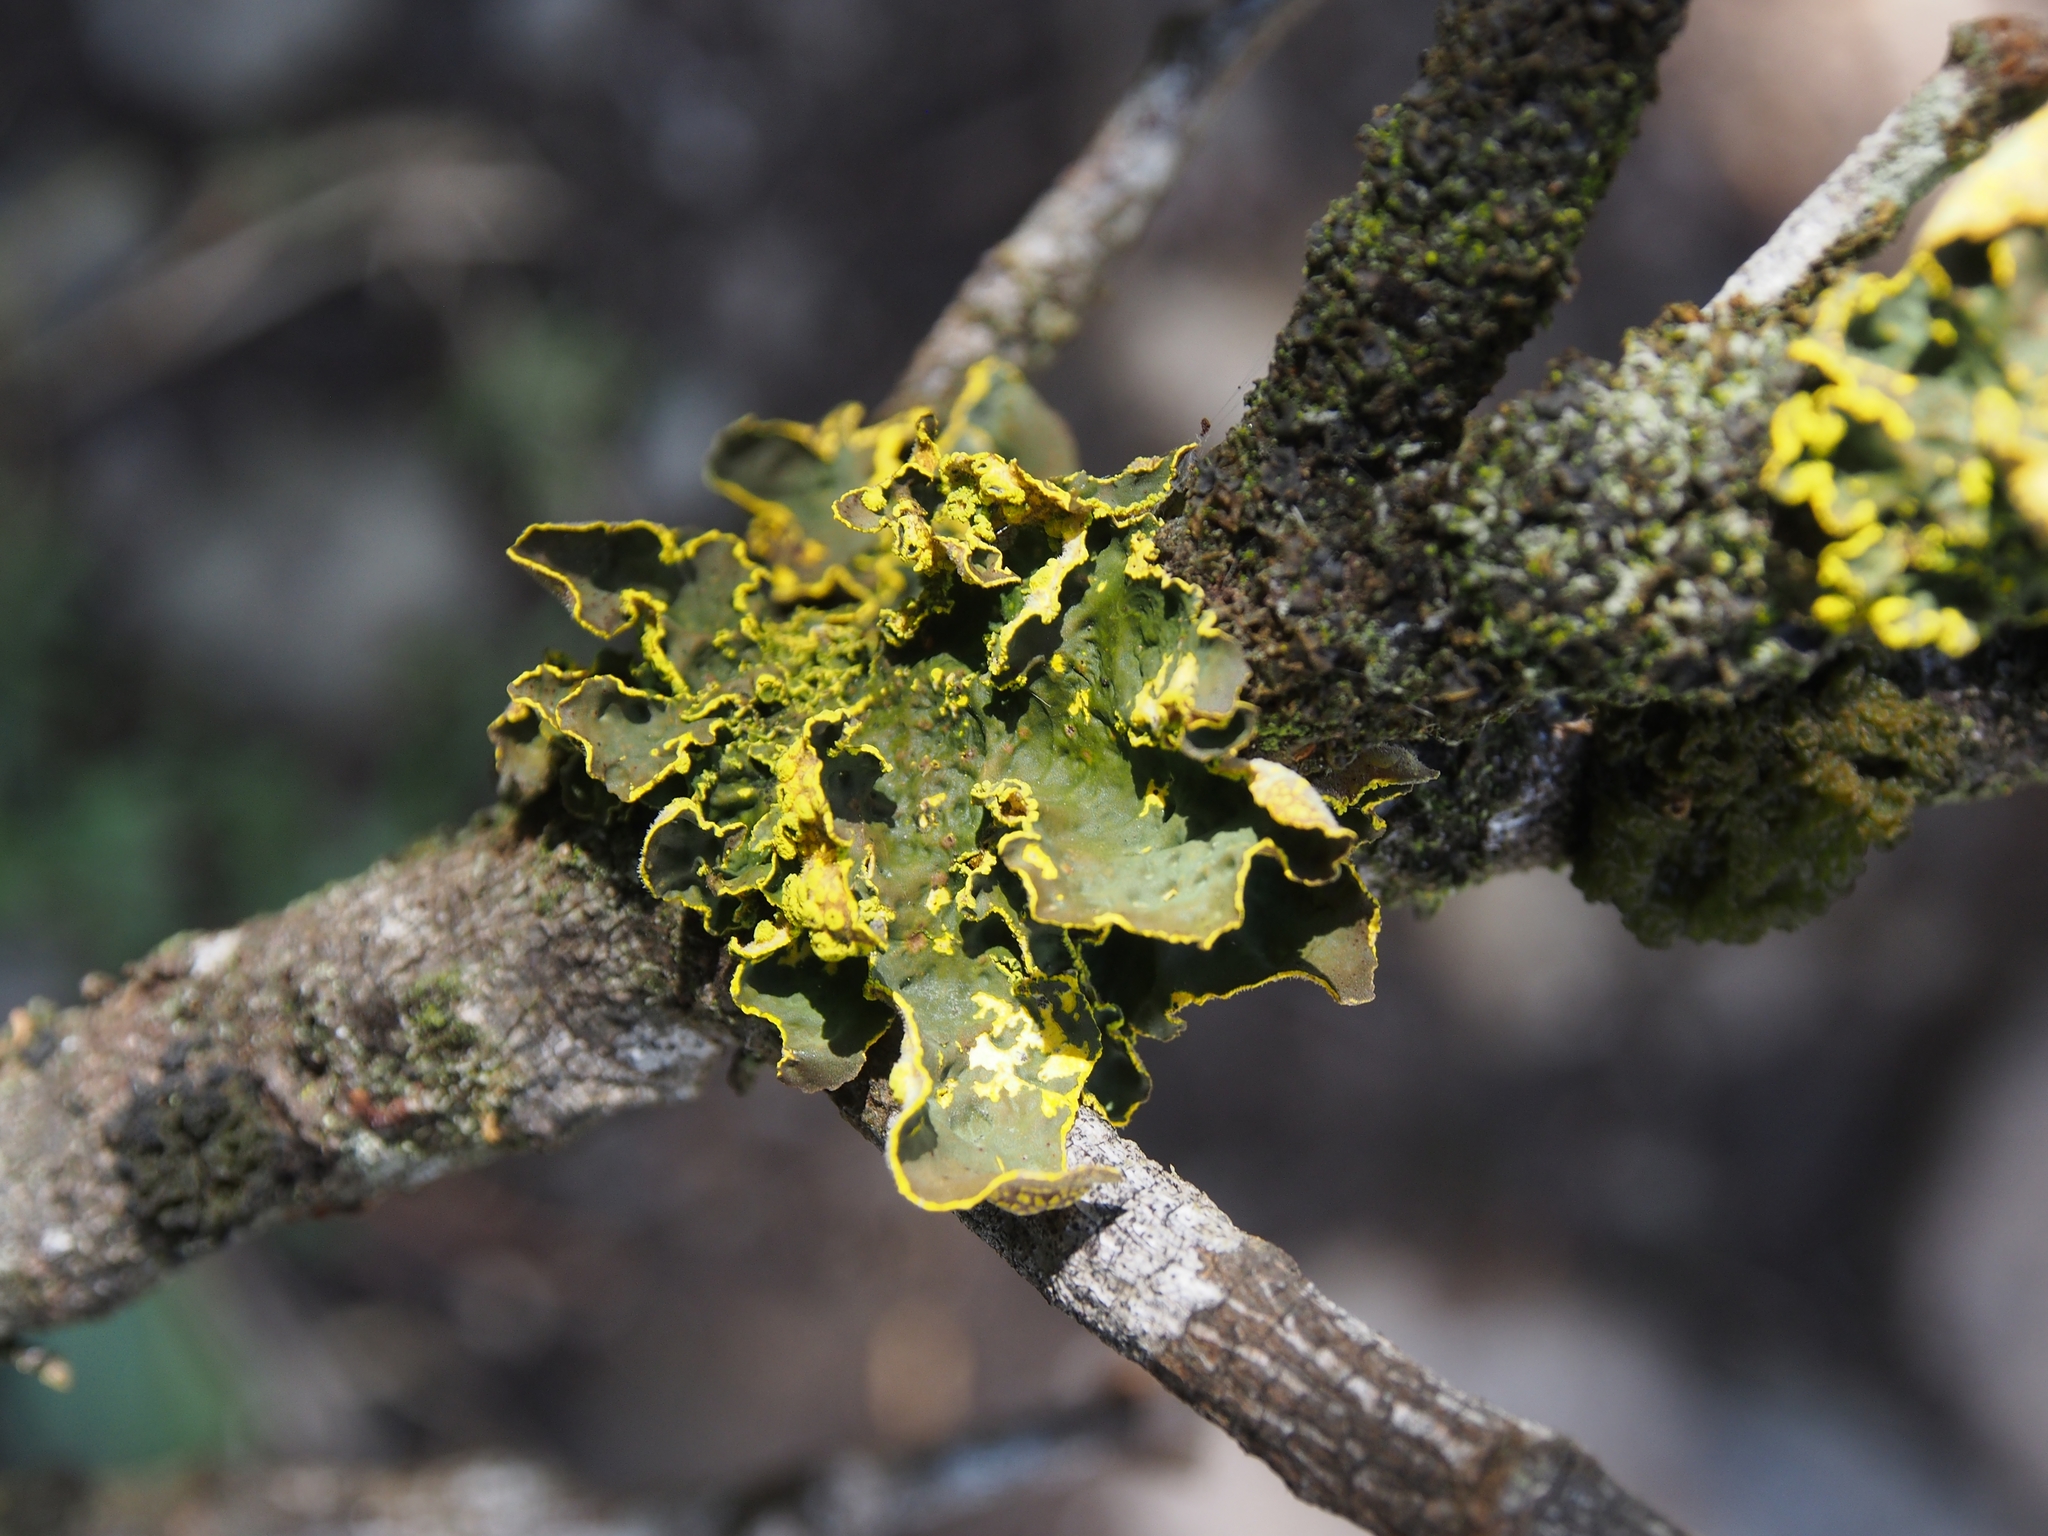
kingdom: Fungi
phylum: Ascomycota
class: Lecanoromycetes
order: Peltigerales
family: Lobariaceae
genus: Pseudocyphellaria
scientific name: Pseudocyphellaria aurata
